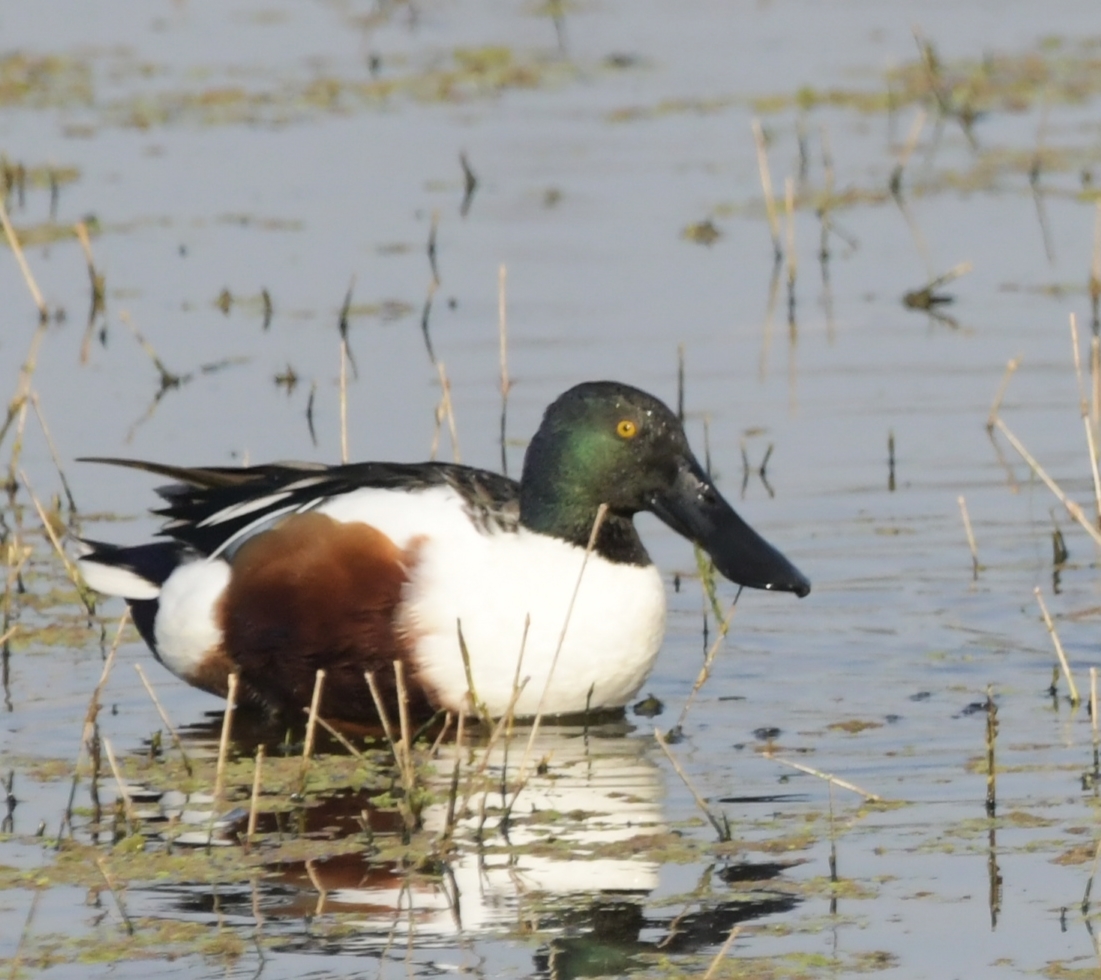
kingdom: Animalia
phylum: Chordata
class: Aves
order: Anseriformes
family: Anatidae
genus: Spatula
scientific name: Spatula clypeata
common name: Northern shoveler
